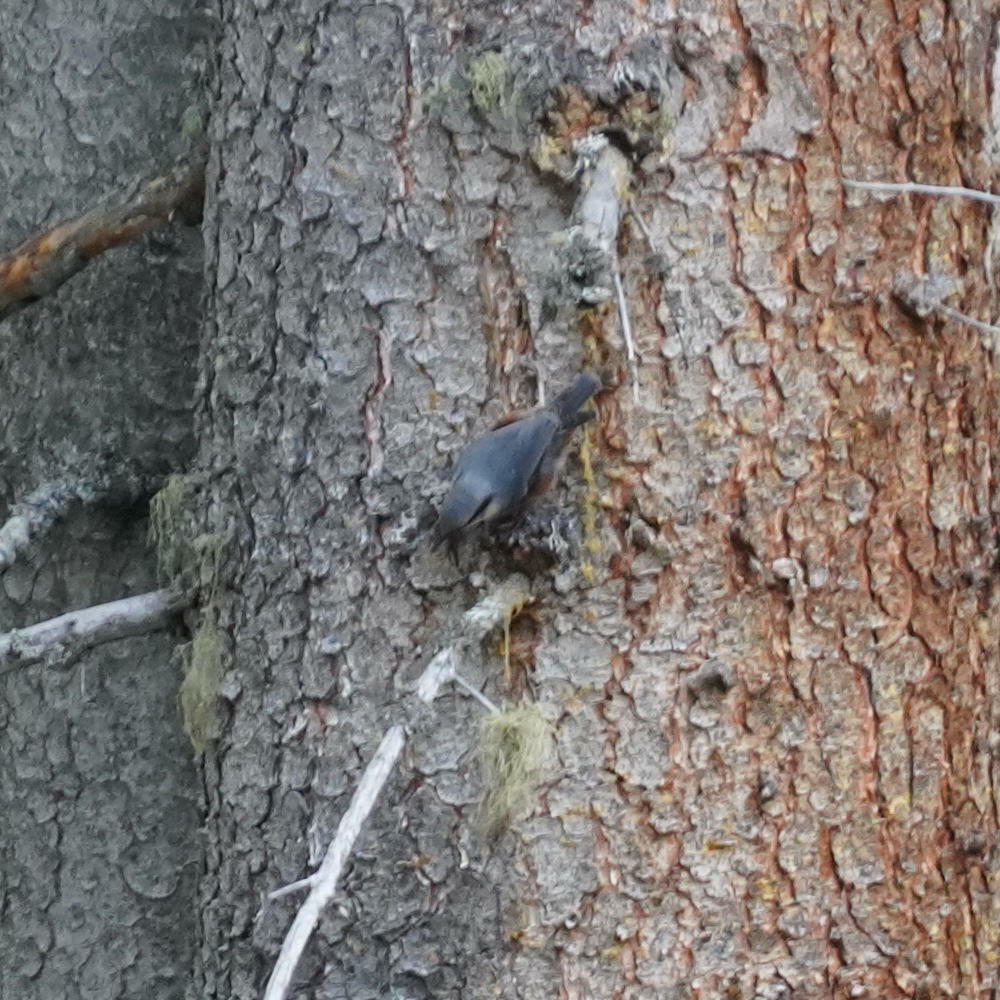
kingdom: Animalia
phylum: Chordata
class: Aves
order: Passeriformes
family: Sittidae
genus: Sitta
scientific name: Sitta europaea
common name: Eurasian nuthatch
